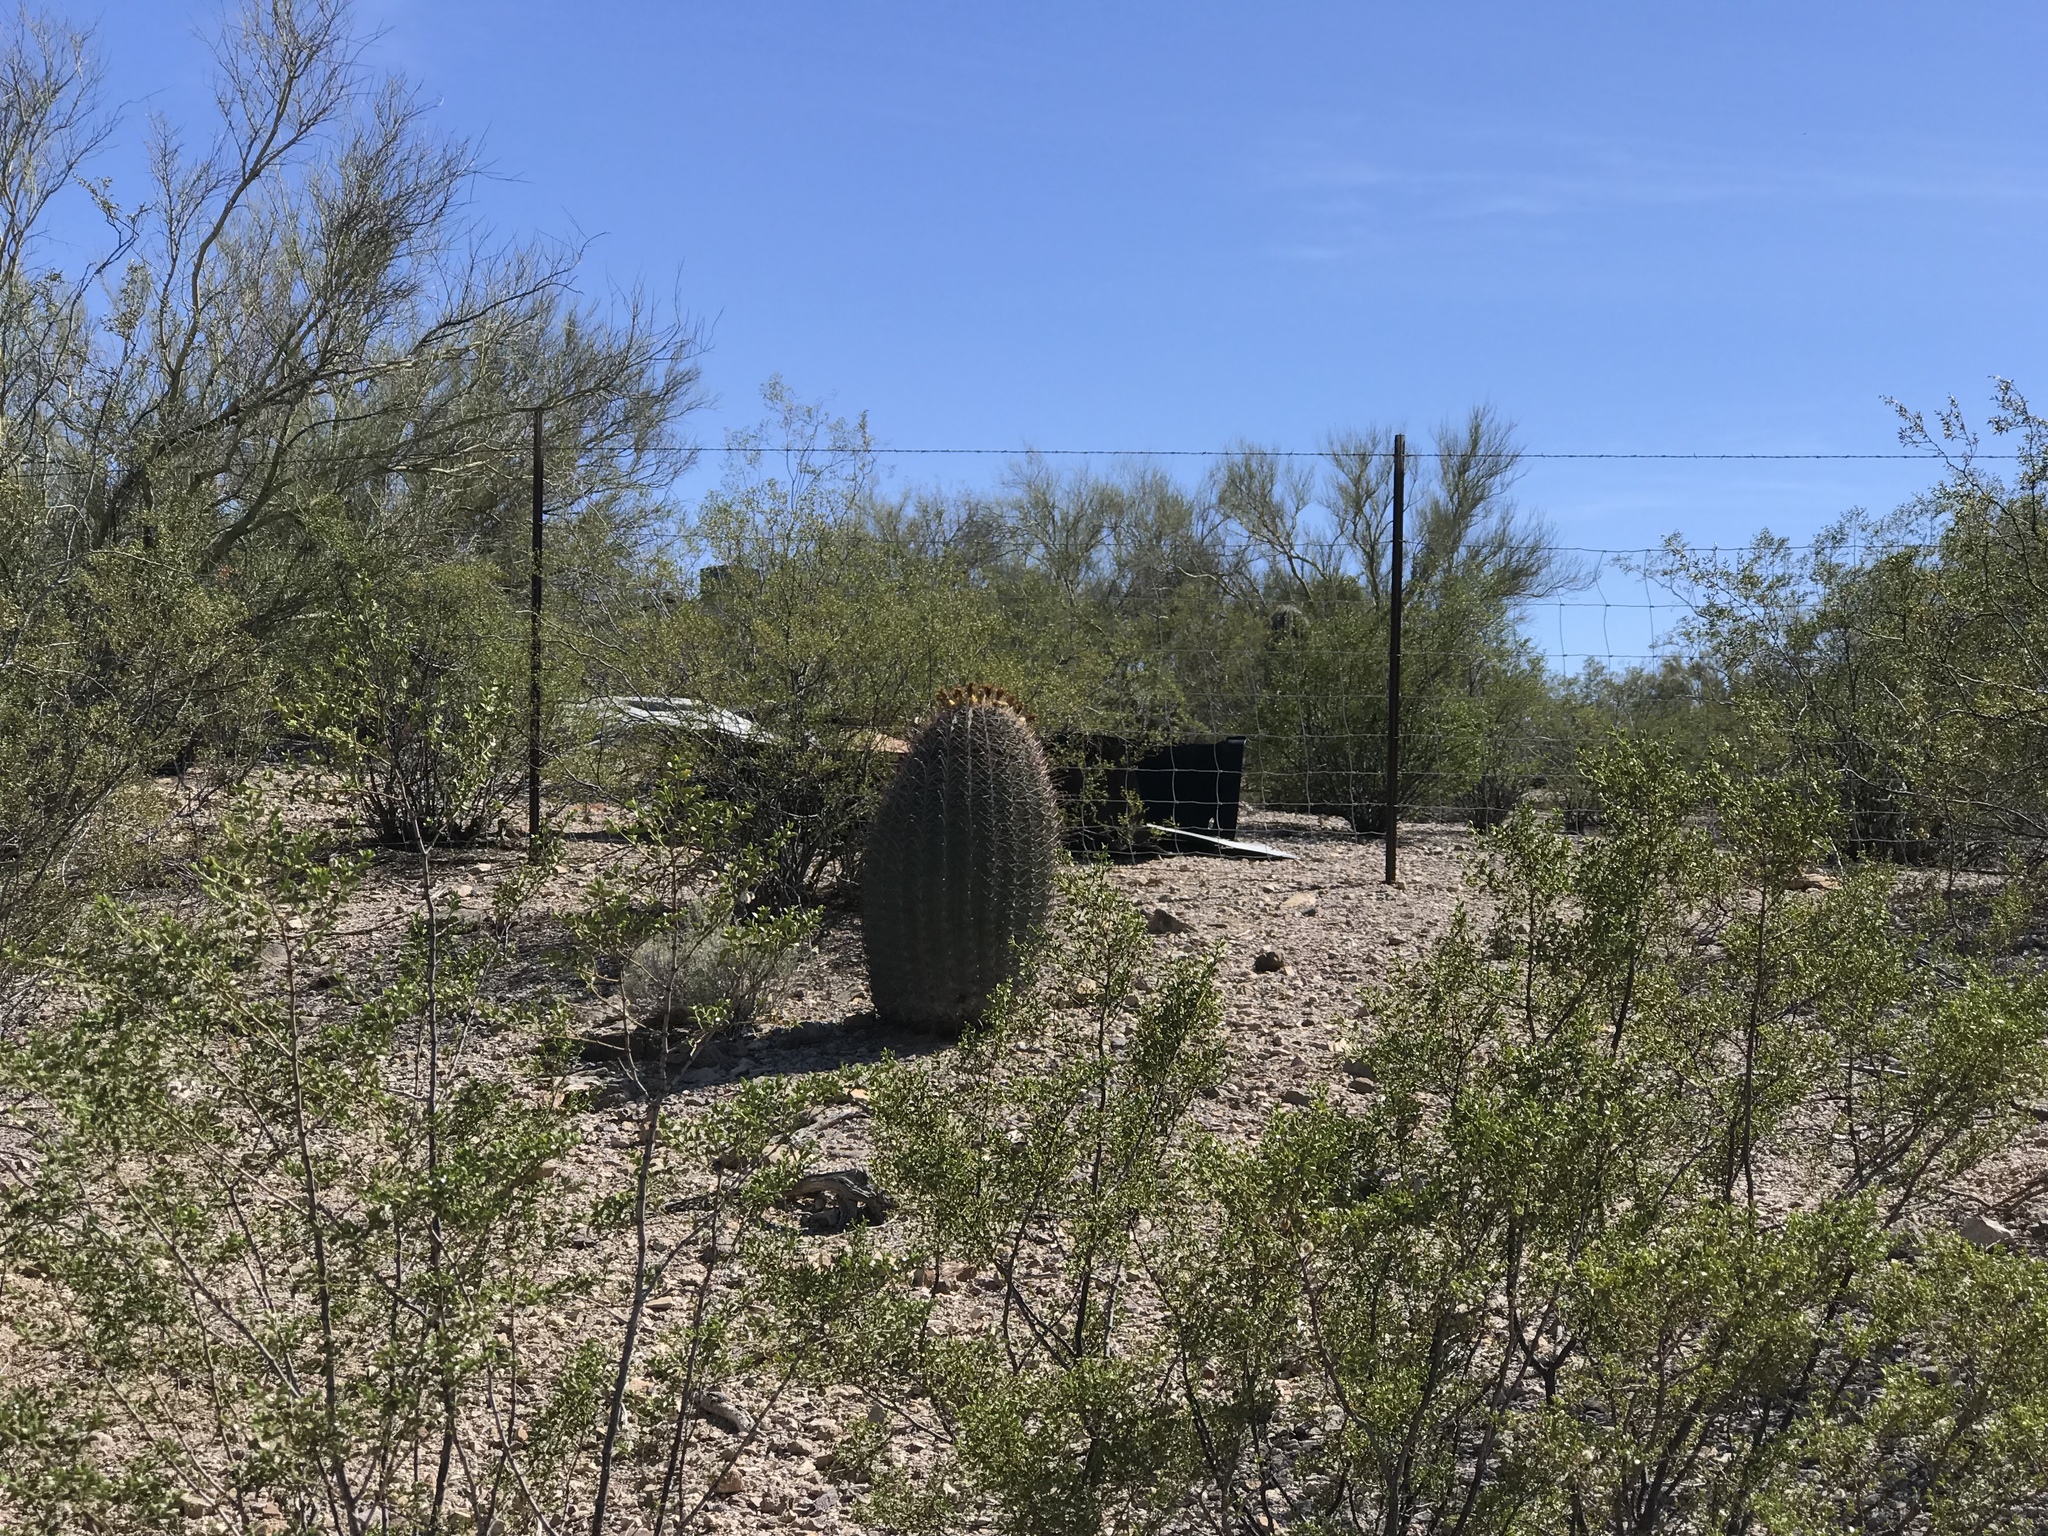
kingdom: Plantae
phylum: Tracheophyta
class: Magnoliopsida
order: Caryophyllales
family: Cactaceae
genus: Ferocactus
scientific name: Ferocactus wislizeni
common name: Candy barrel cactus
